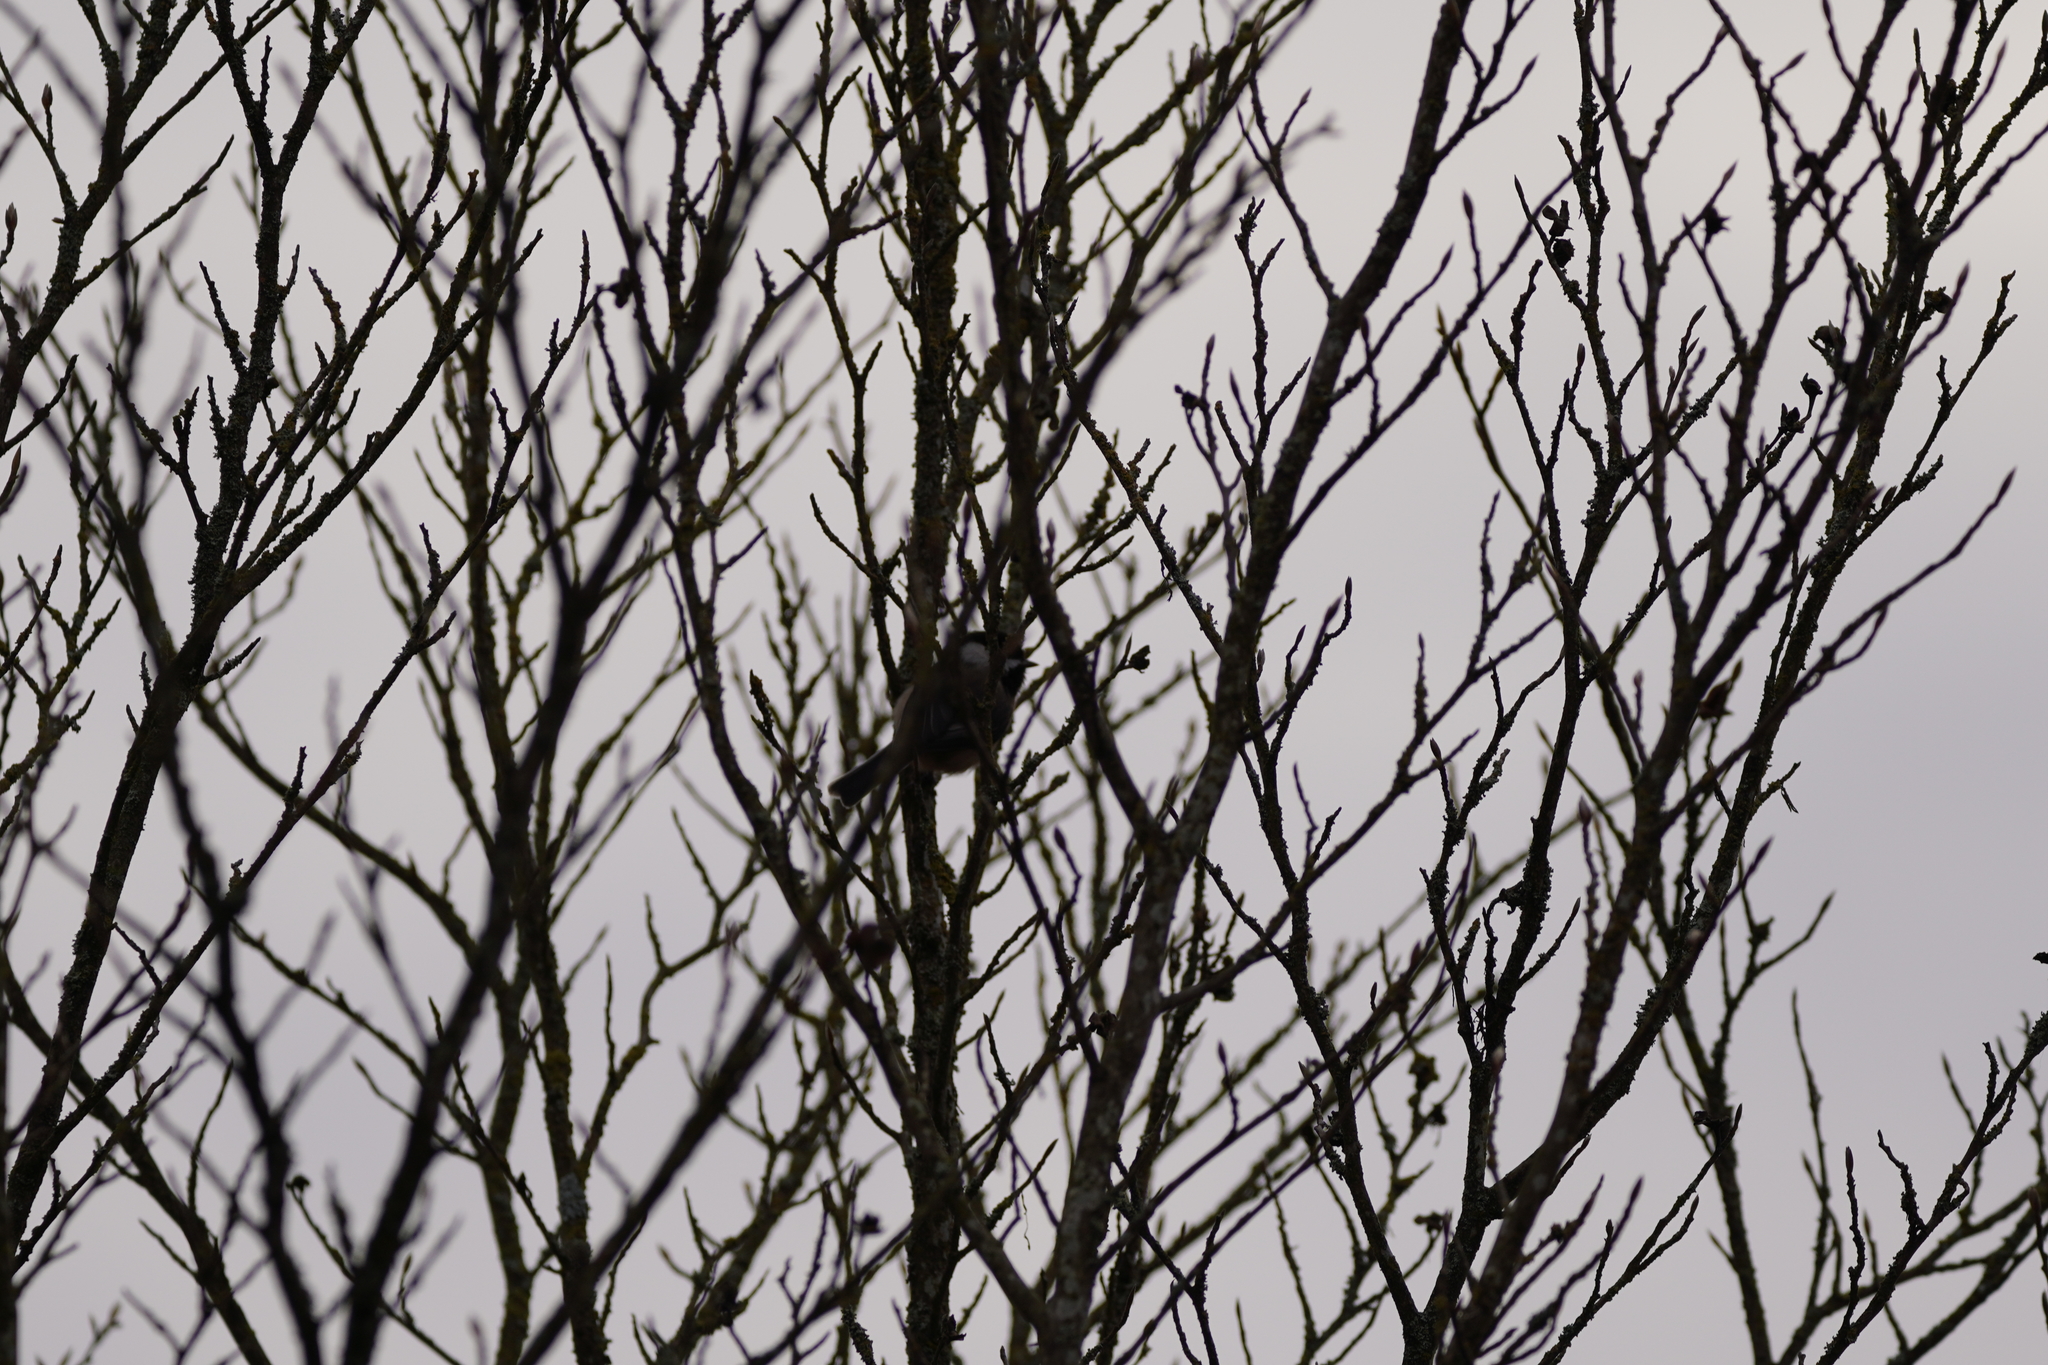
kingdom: Animalia
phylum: Chordata
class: Aves
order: Passeriformes
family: Paridae
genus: Poecile
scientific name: Poecile atricapillus
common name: Black-capped chickadee
